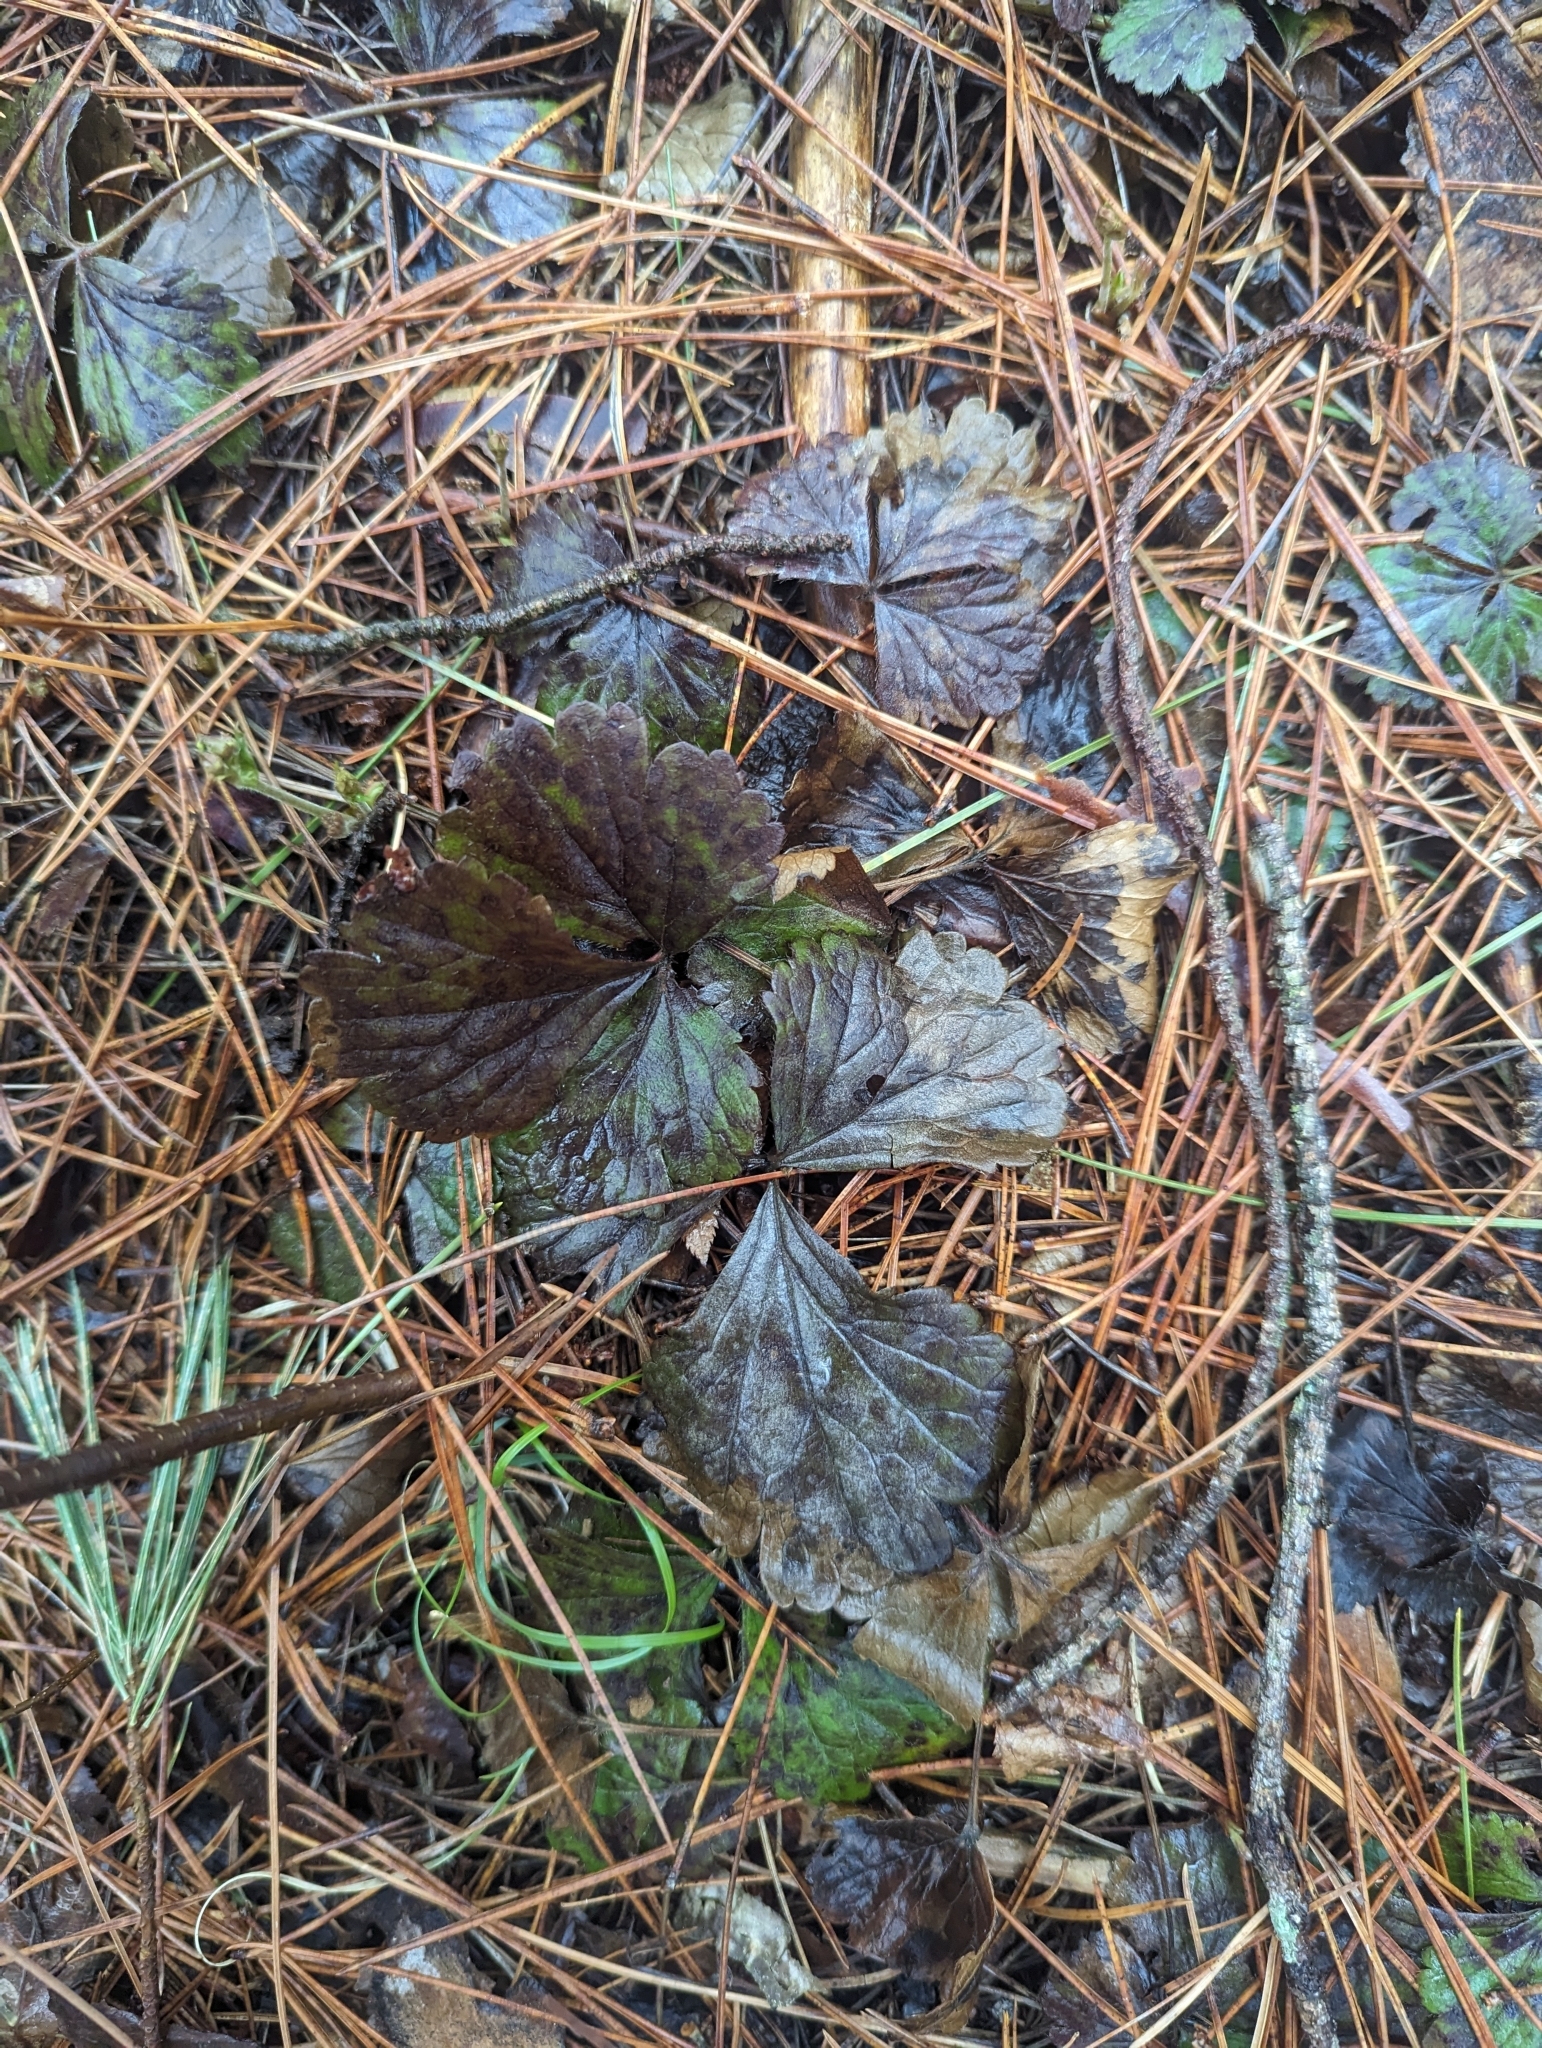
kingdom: Plantae
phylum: Tracheophyta
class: Magnoliopsida
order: Rosales
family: Rosaceae
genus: Geum
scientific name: Geum fragarioides
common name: Appalachian barren strawberry
